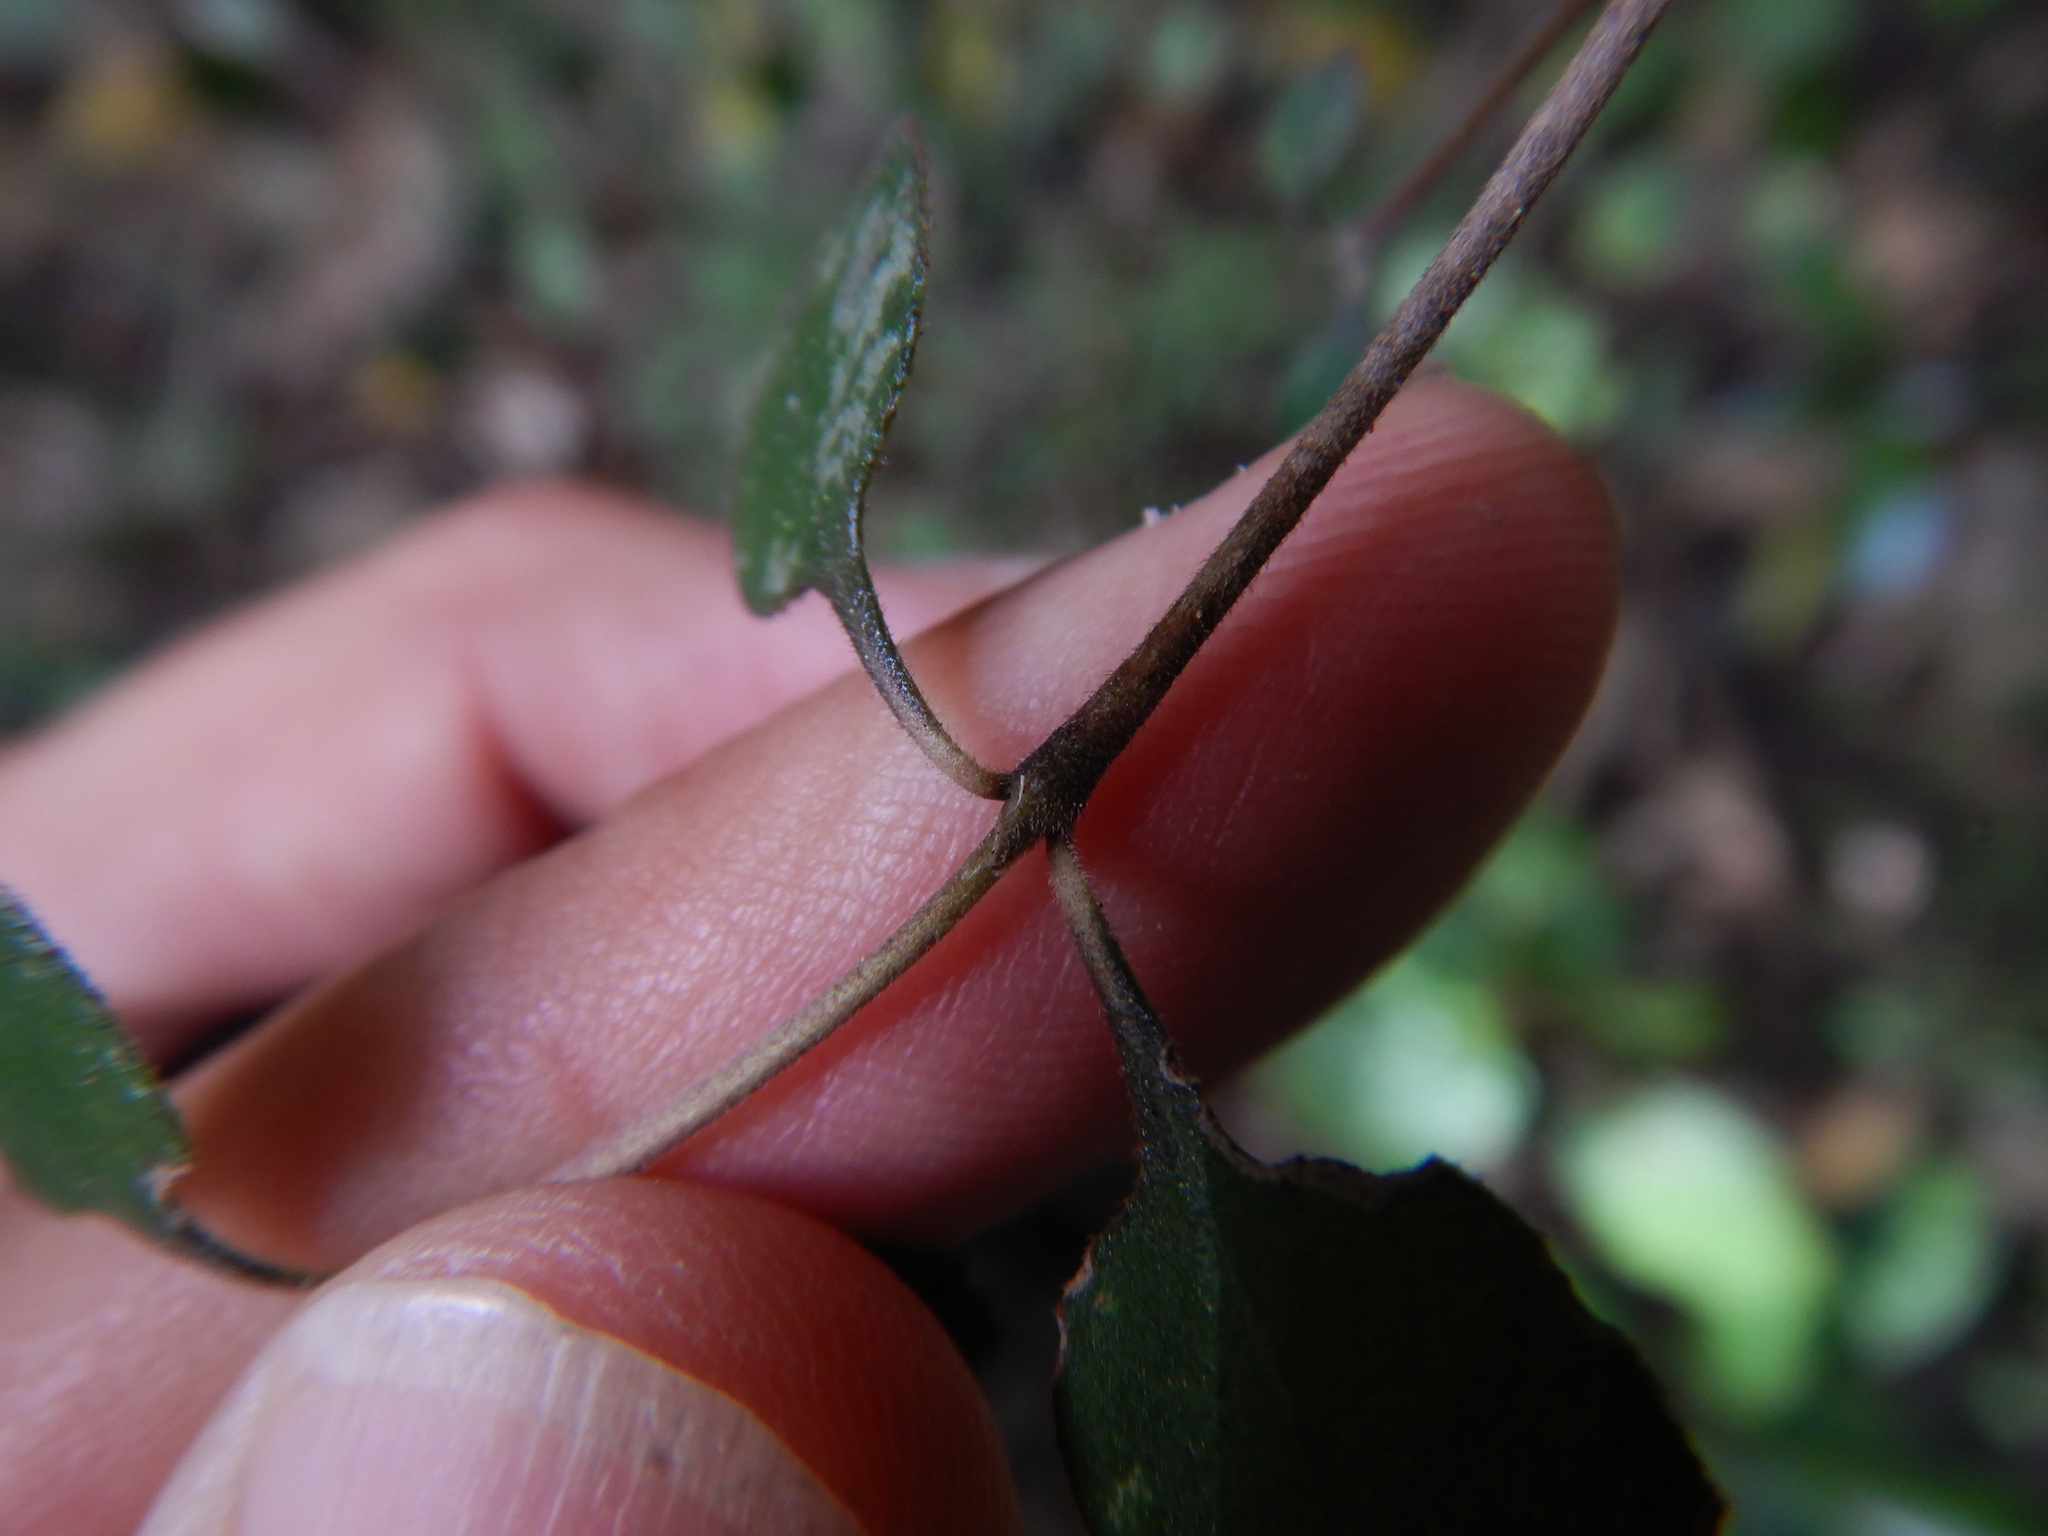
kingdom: Plantae
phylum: Tracheophyta
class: Magnoliopsida
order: Gentianales
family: Rubiaceae
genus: Coprosma
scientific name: Coprosma crassifolia
